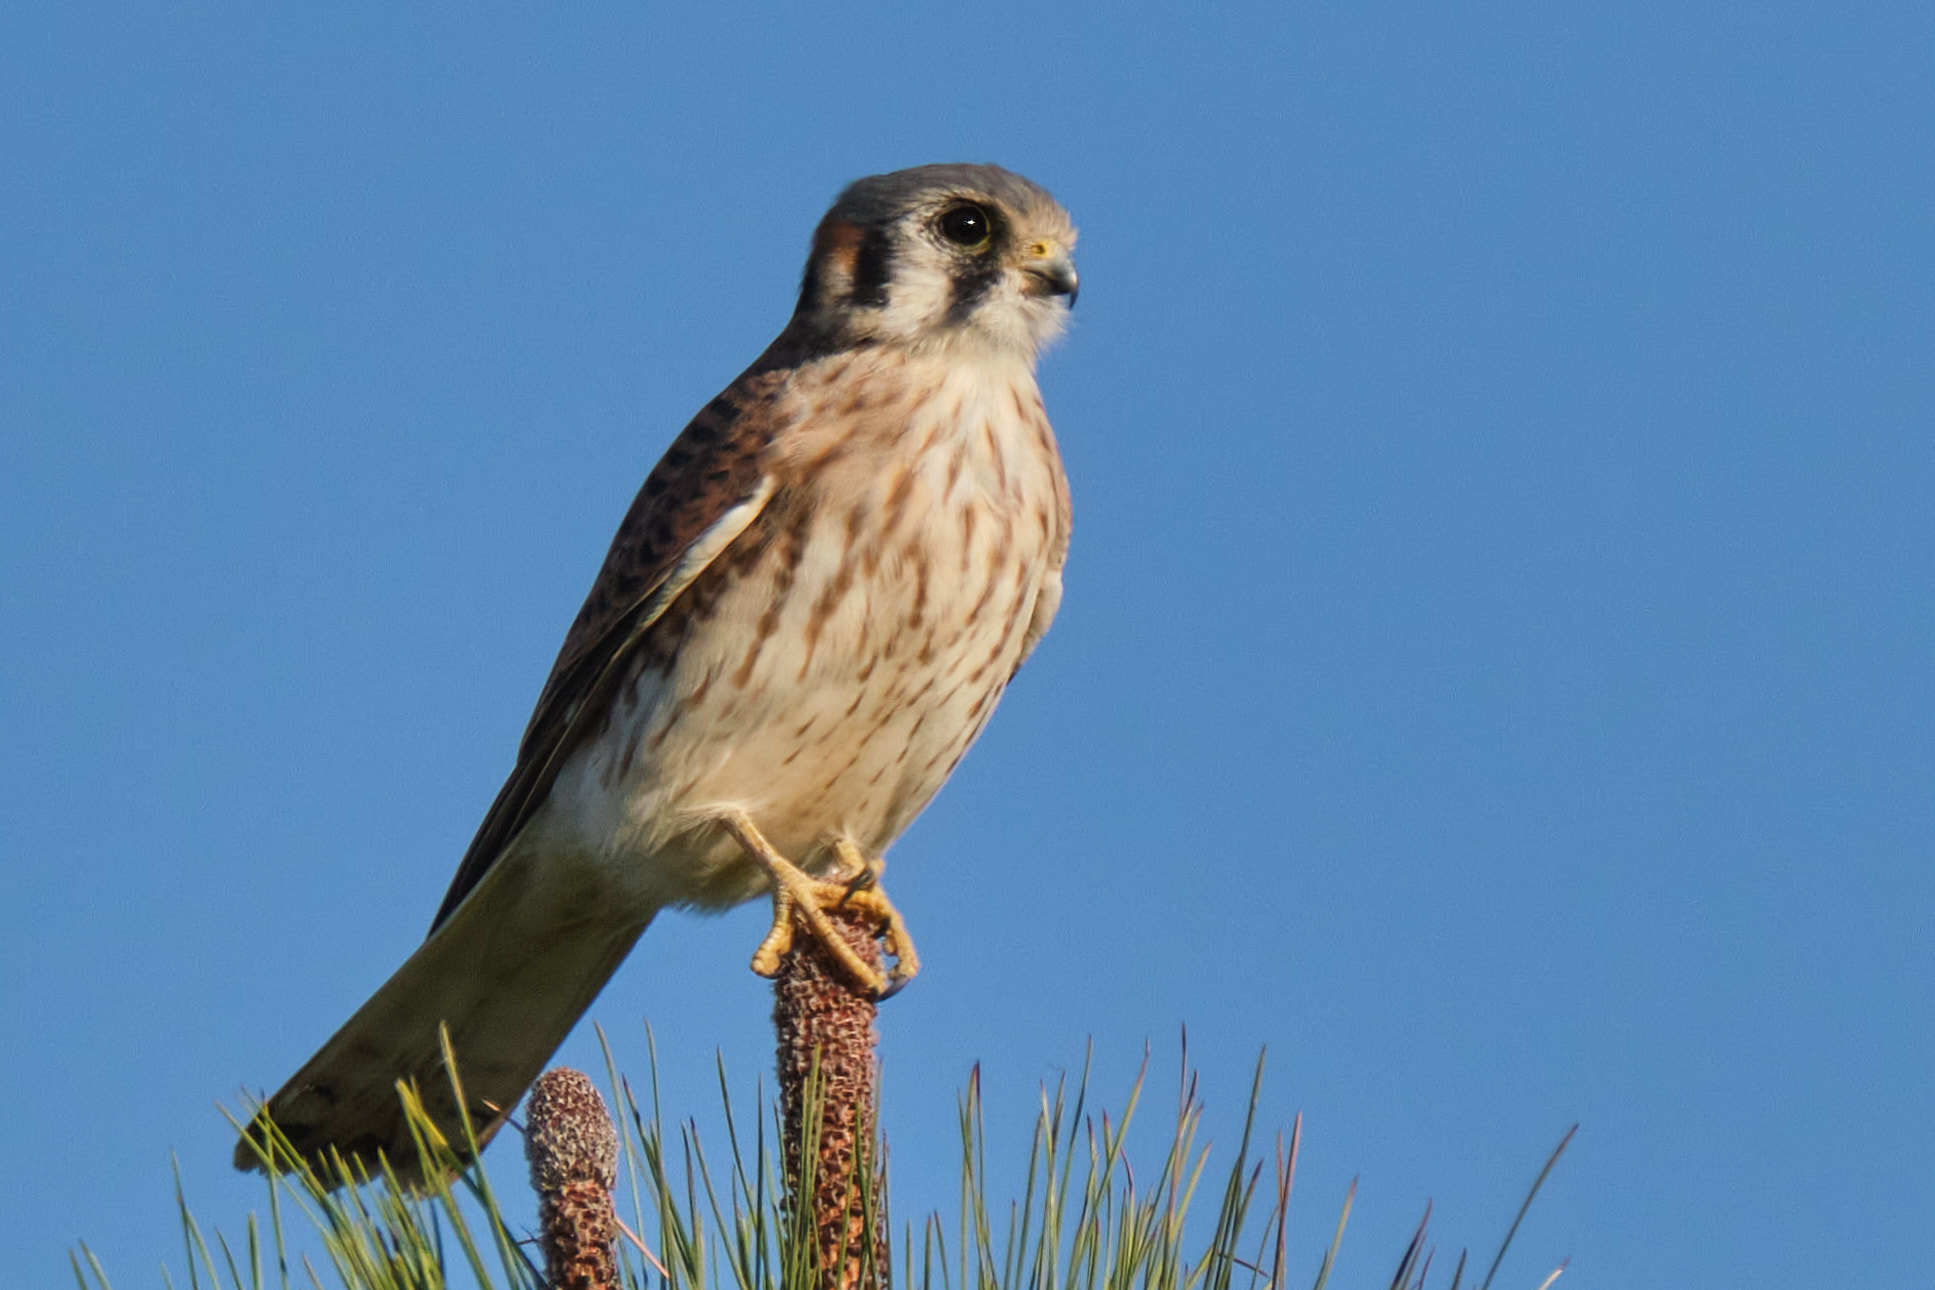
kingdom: Animalia
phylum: Chordata
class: Aves
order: Falconiformes
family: Falconidae
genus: Falco
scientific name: Falco sparverius
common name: American kestrel
